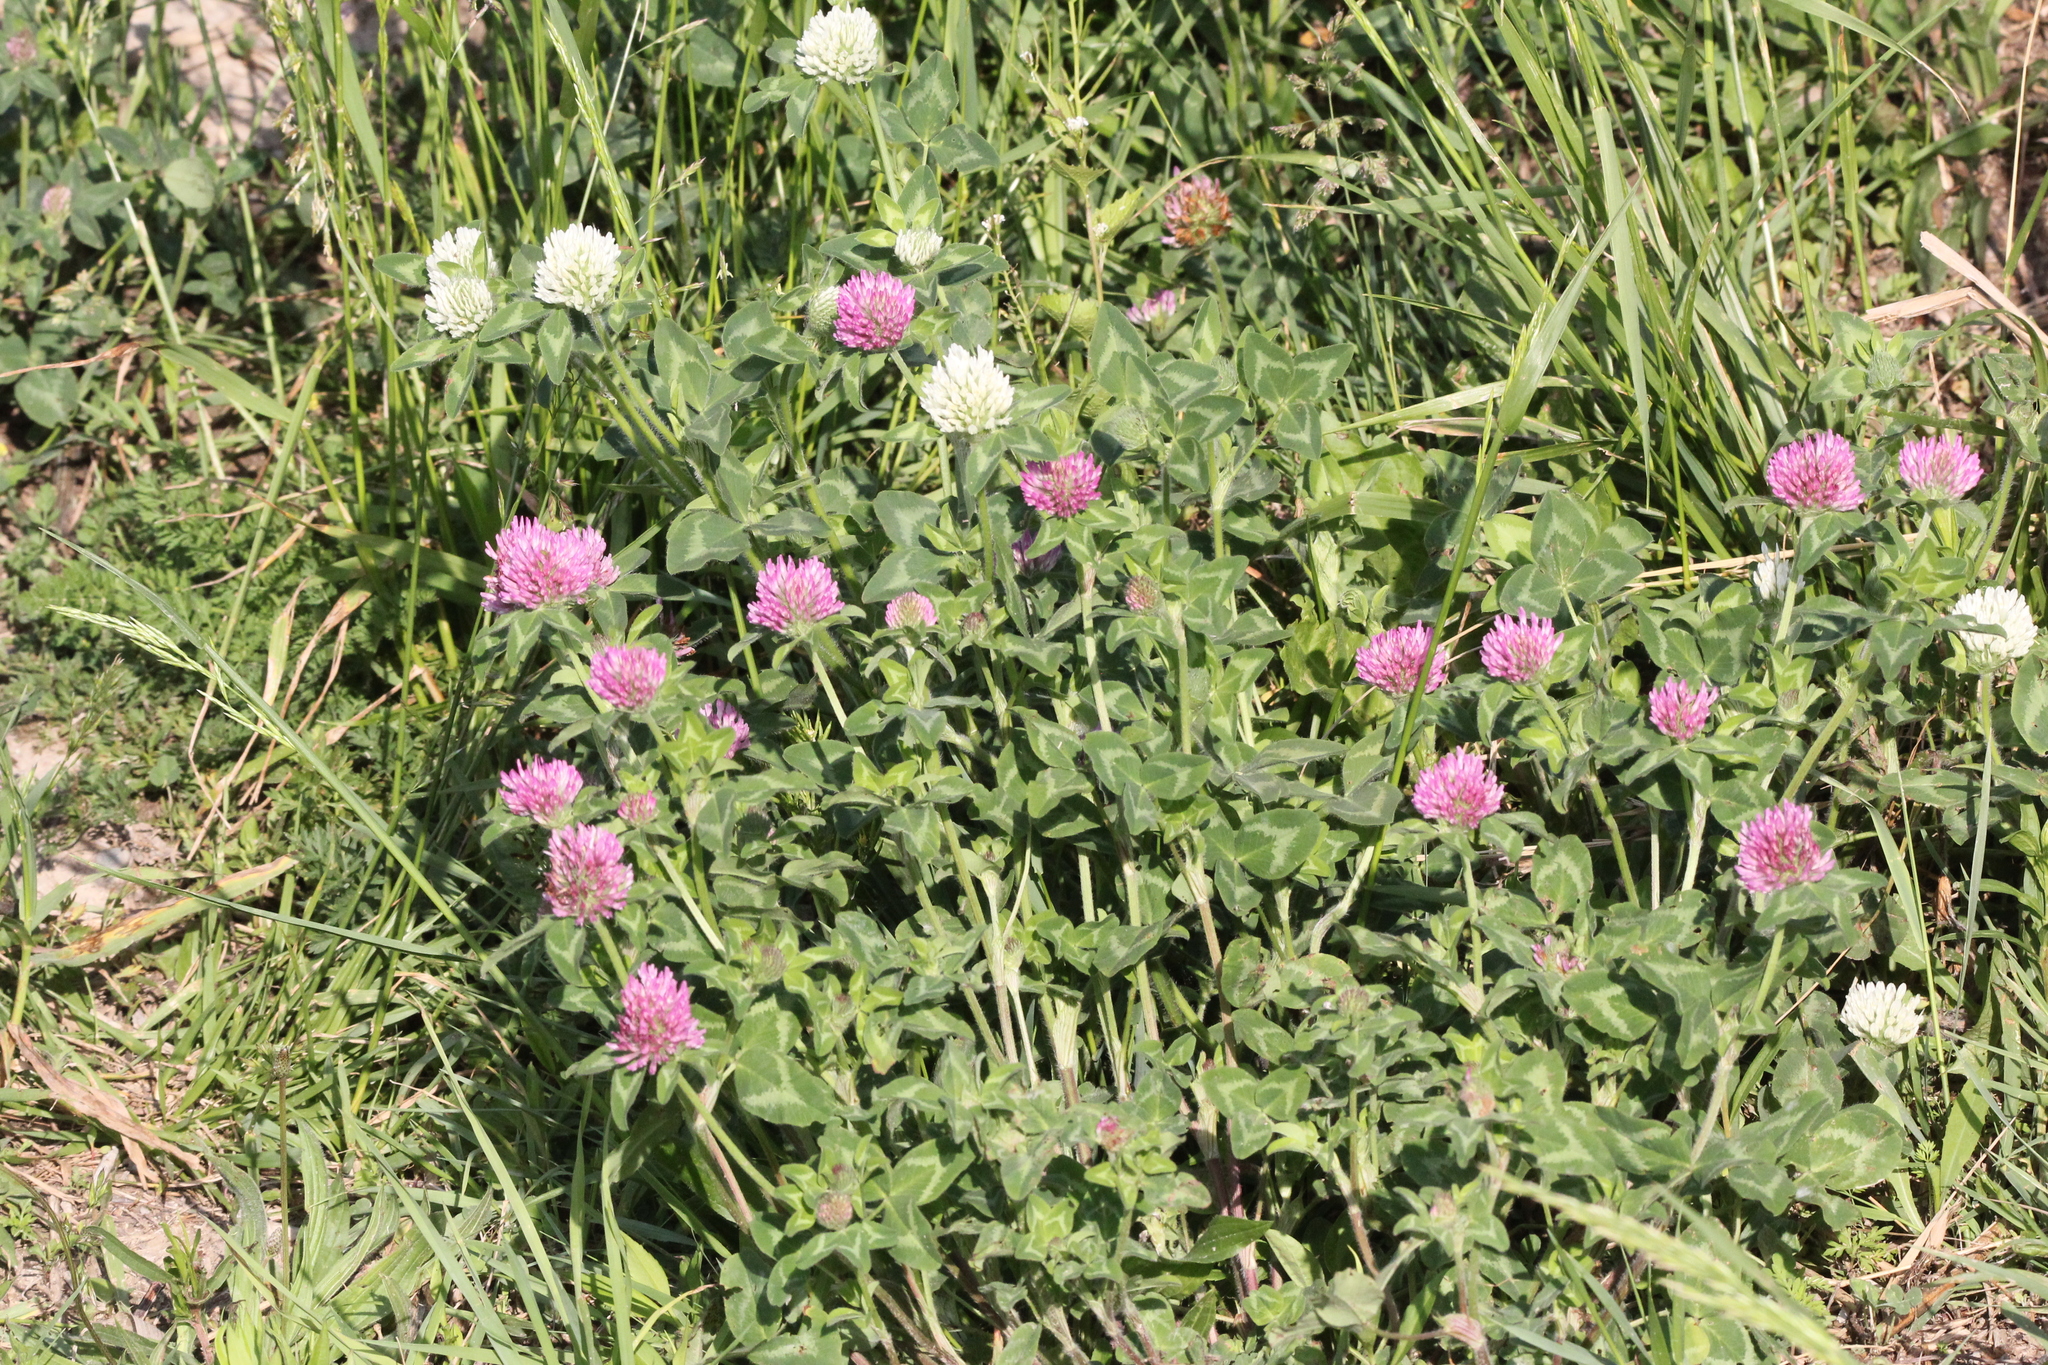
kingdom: Plantae
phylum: Tracheophyta
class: Magnoliopsida
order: Fabales
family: Fabaceae
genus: Trifolium
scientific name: Trifolium pratense
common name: Red clover
